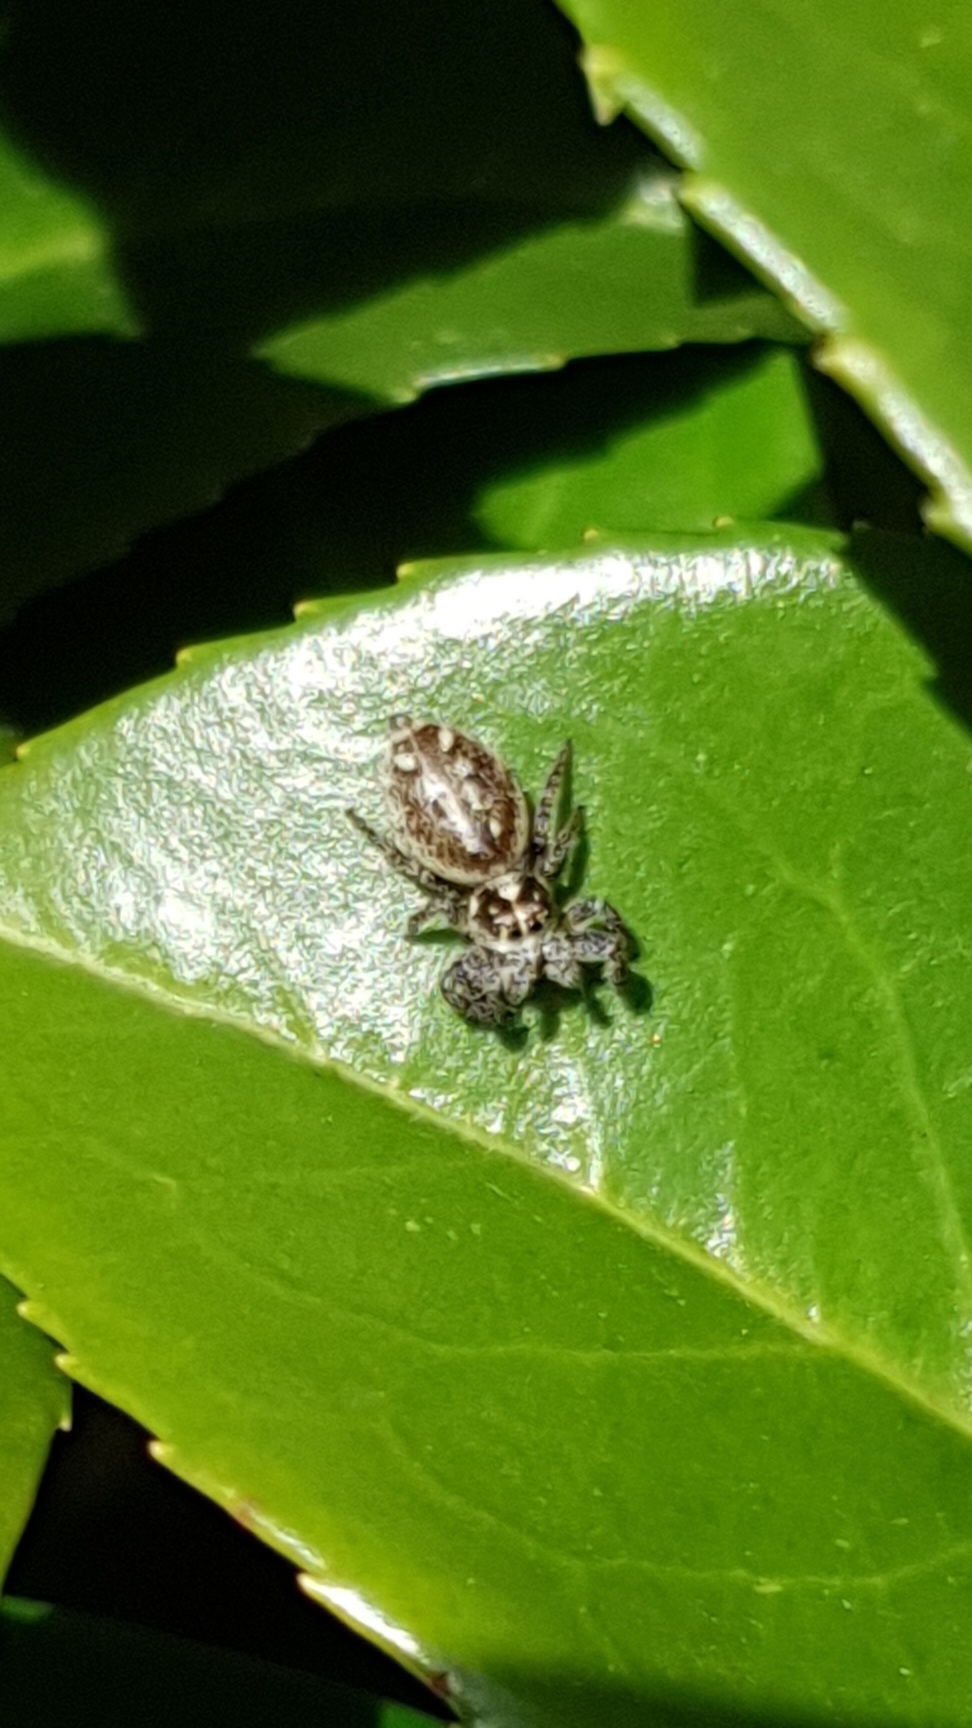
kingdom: Animalia
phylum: Arthropoda
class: Arachnida
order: Araneae
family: Salticidae
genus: Macaroeris
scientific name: Macaroeris nidicolens
